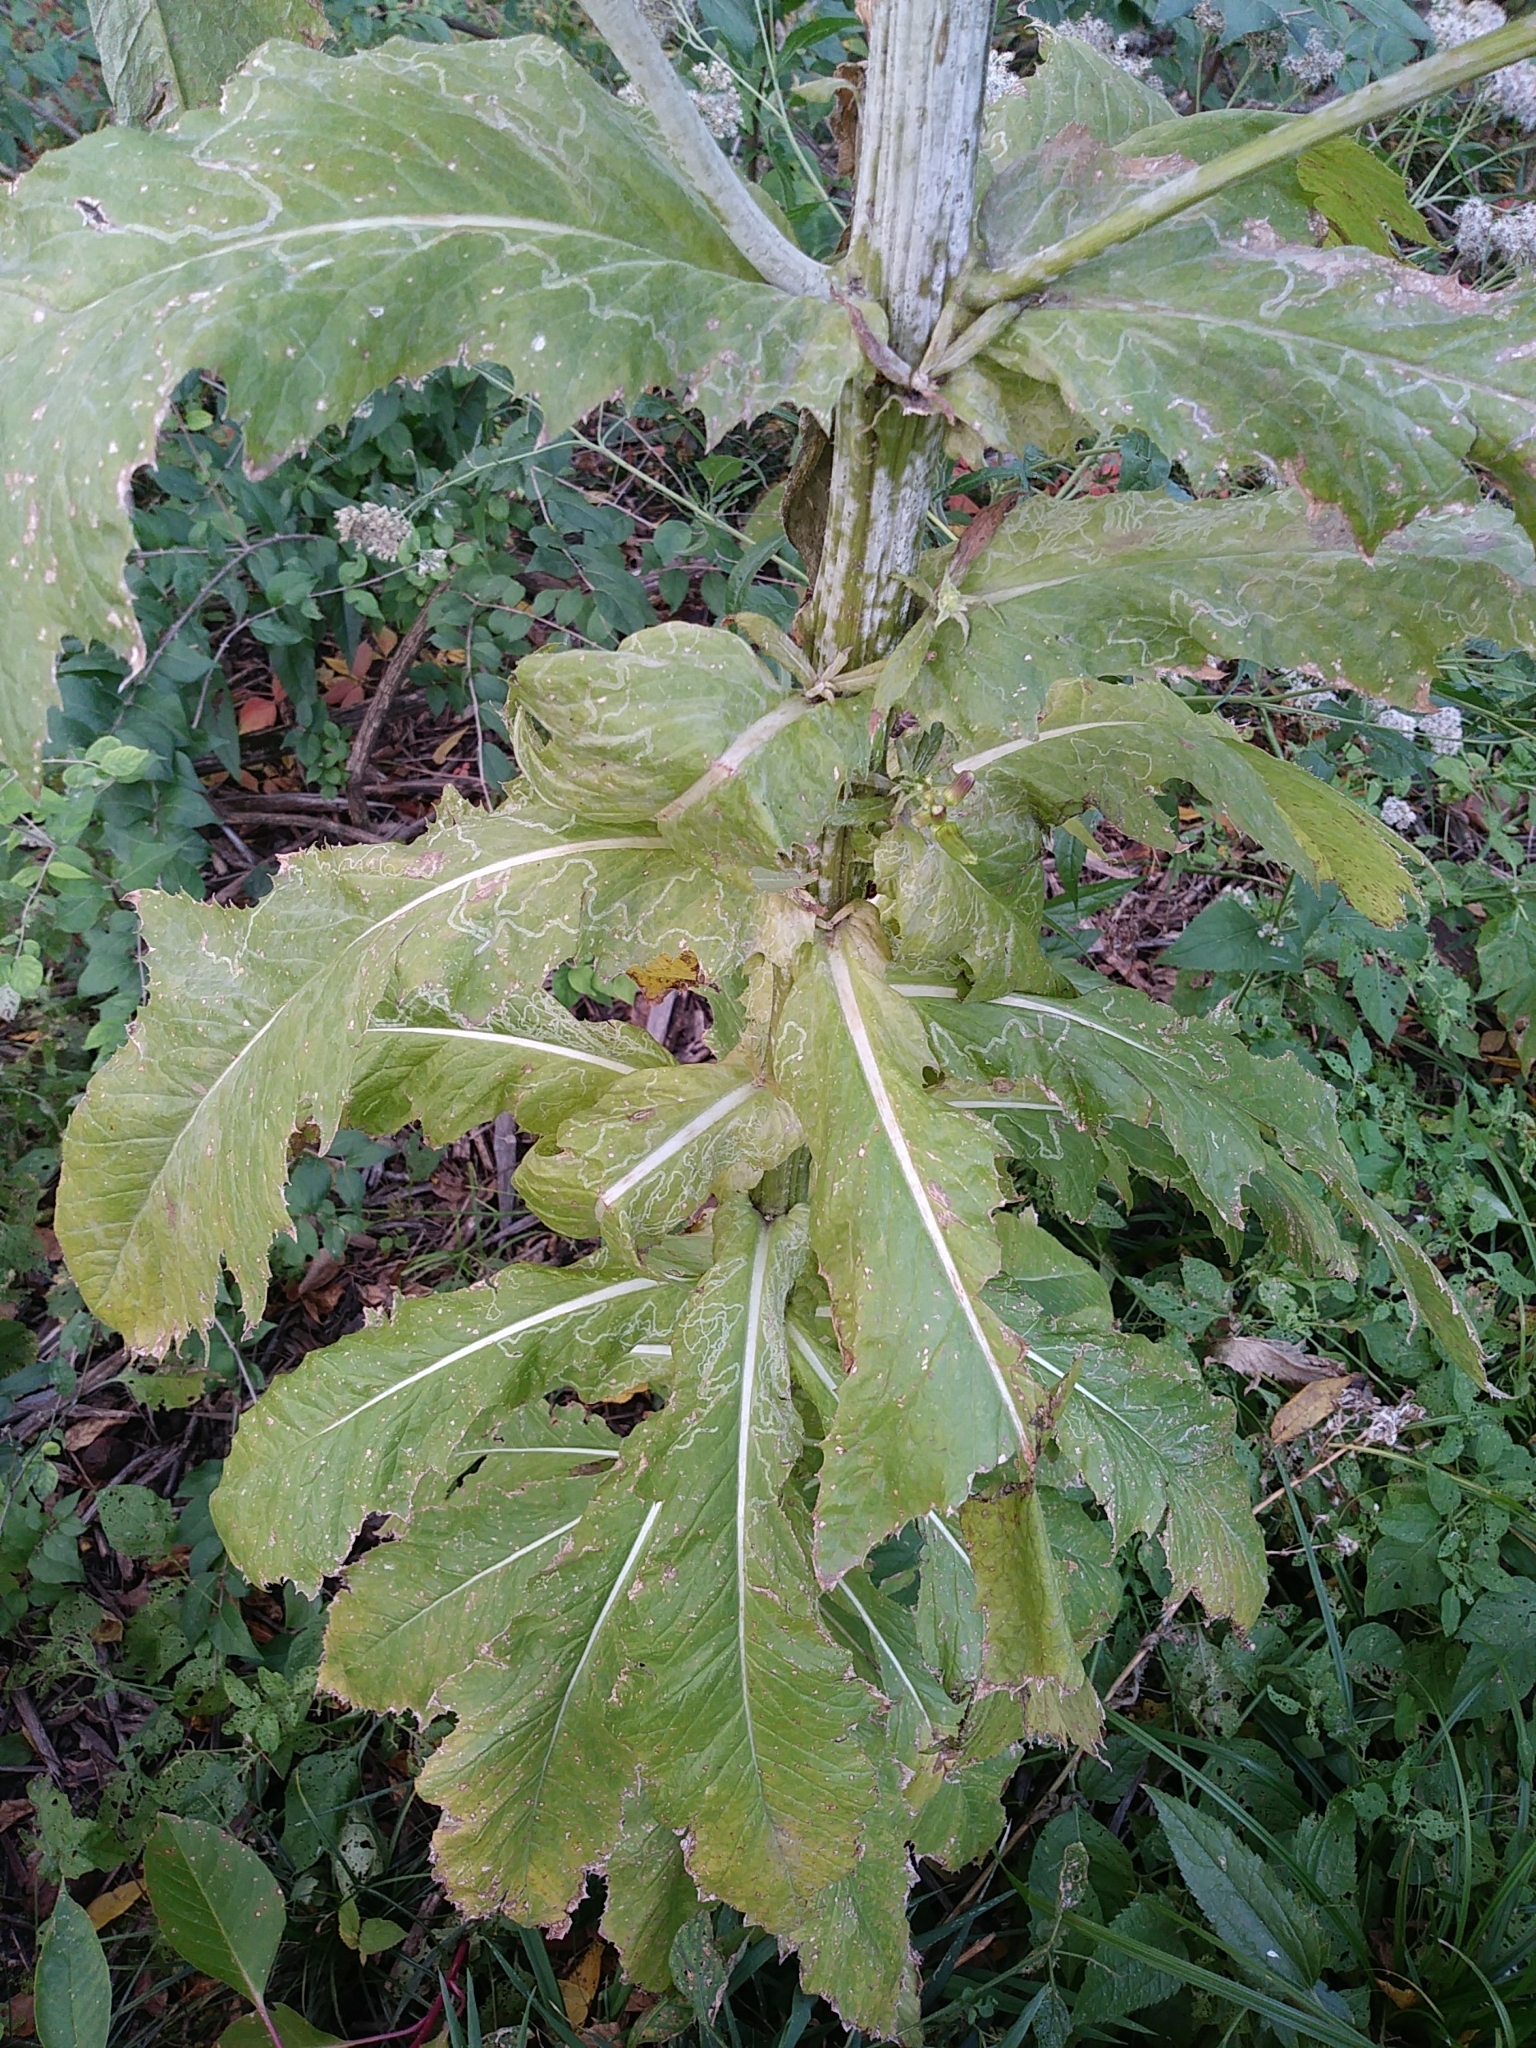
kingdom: Plantae
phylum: Tracheophyta
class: Magnoliopsida
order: Asterales
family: Asteraceae
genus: Erechtites
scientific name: Erechtites hieraciifolius
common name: American burnweed
